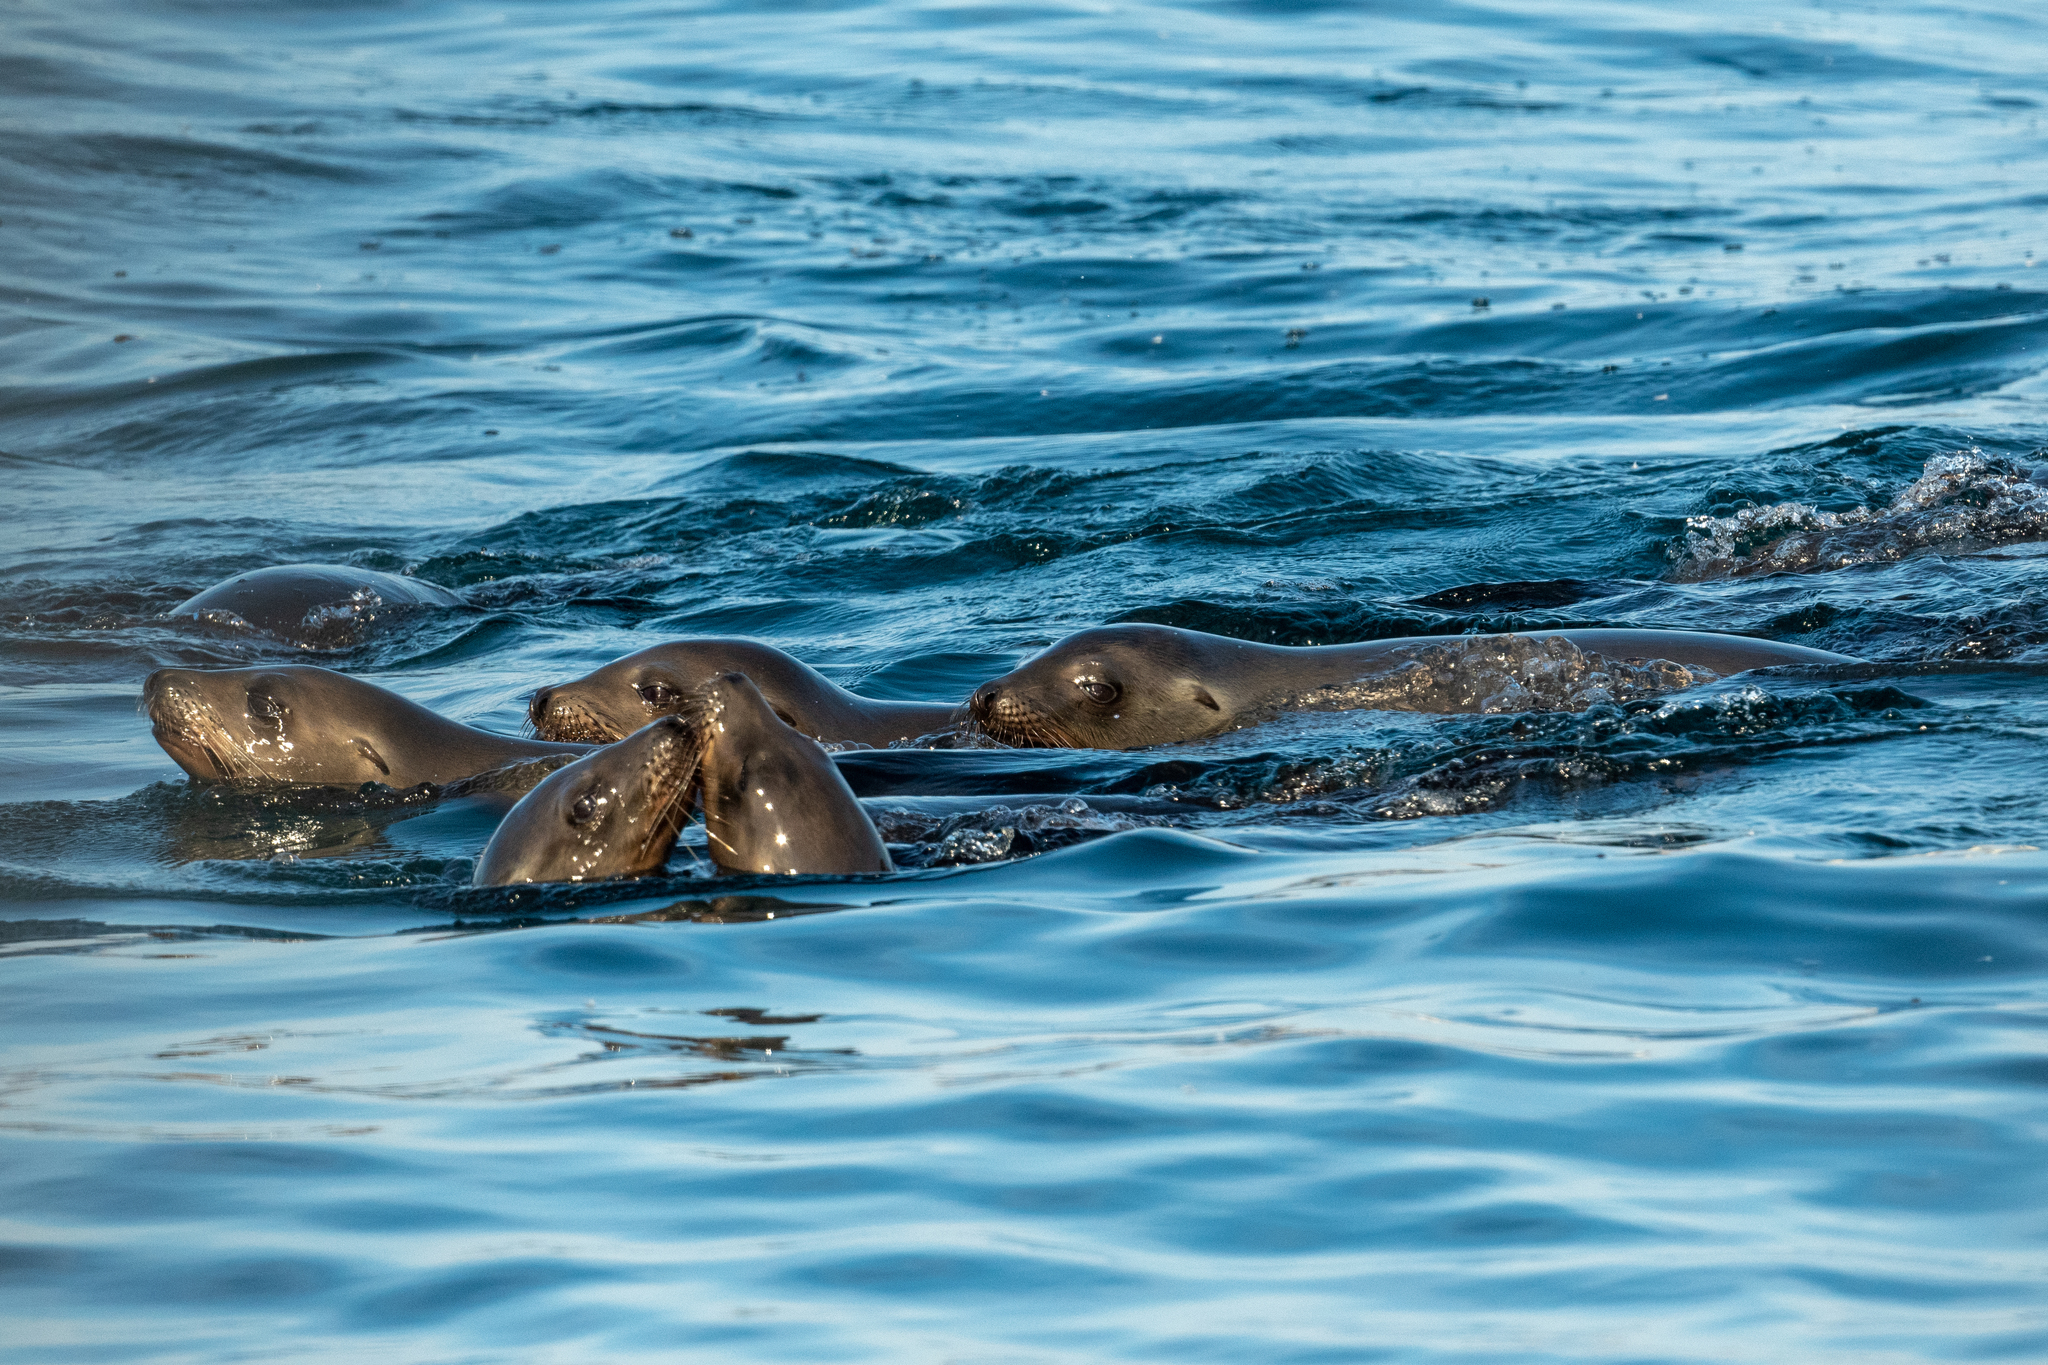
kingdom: Animalia
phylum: Chordata
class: Mammalia
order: Carnivora
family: Otariidae
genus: Zalophus
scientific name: Zalophus californianus
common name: California sea lion
